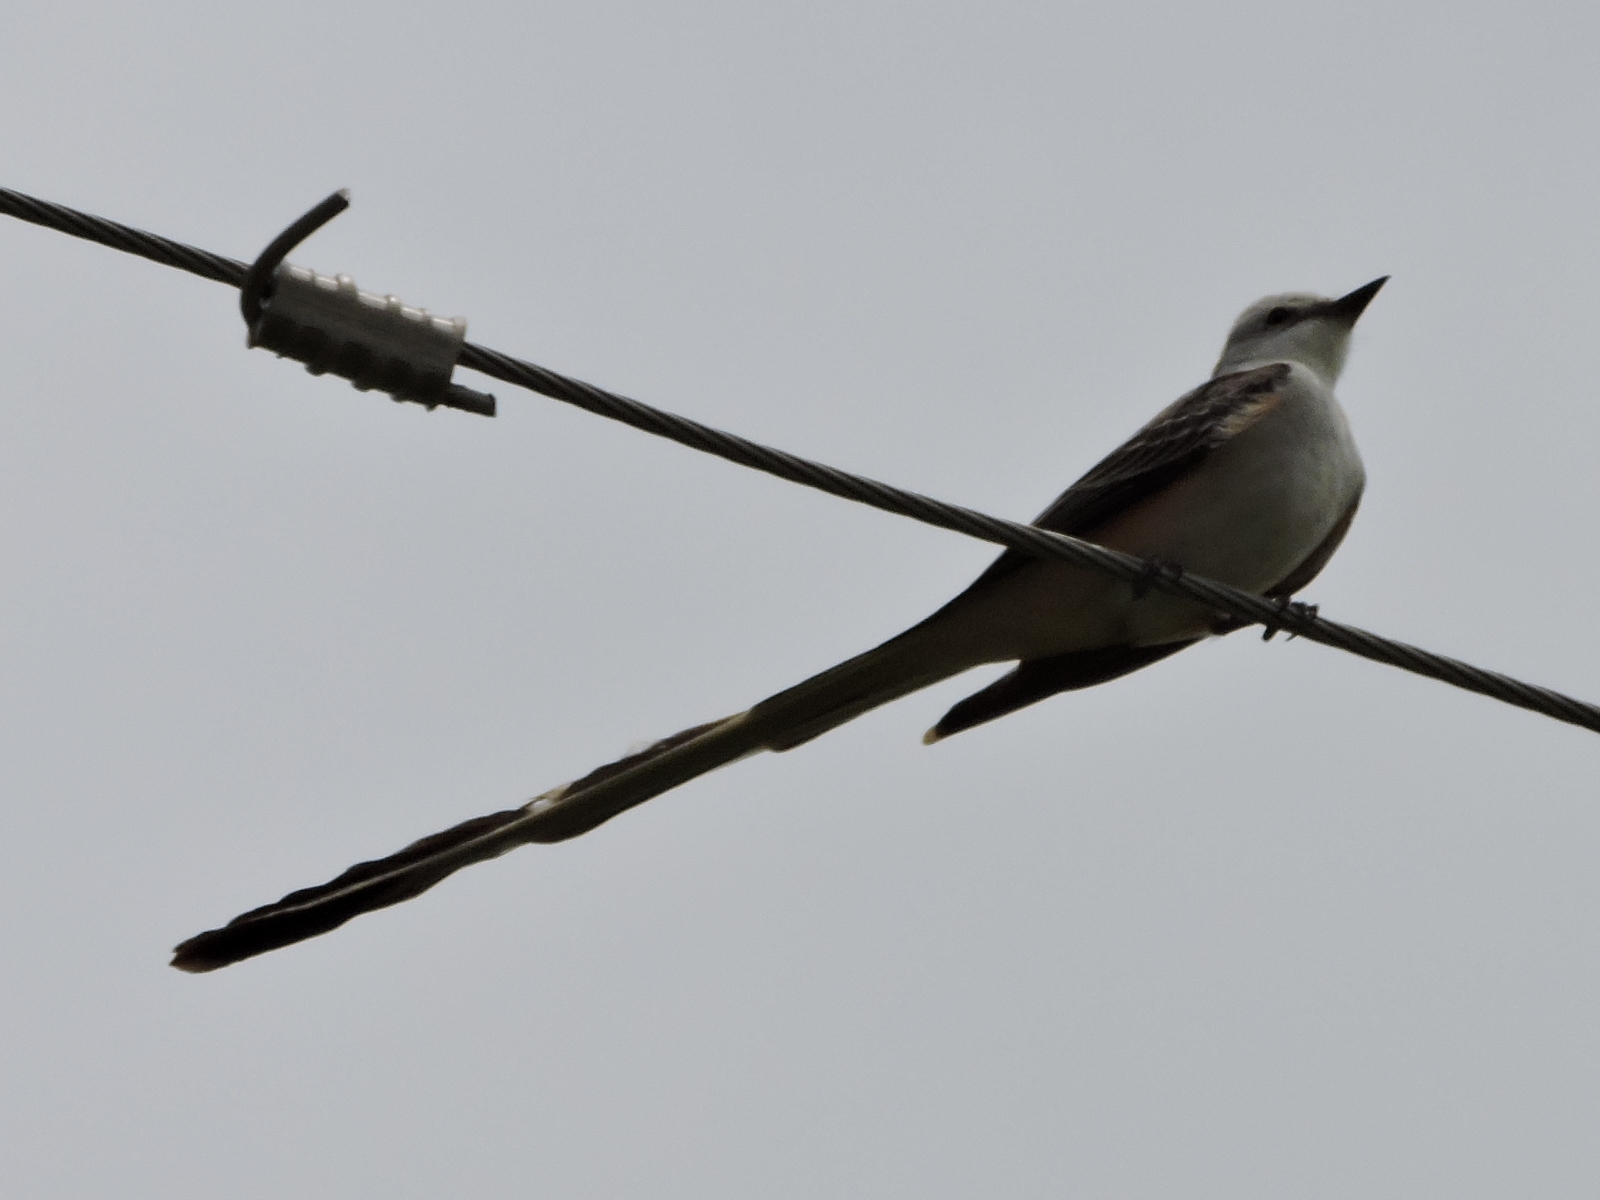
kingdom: Animalia
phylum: Chordata
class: Aves
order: Passeriformes
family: Tyrannidae
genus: Tyrannus
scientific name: Tyrannus forficatus
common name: Scissor-tailed flycatcher
